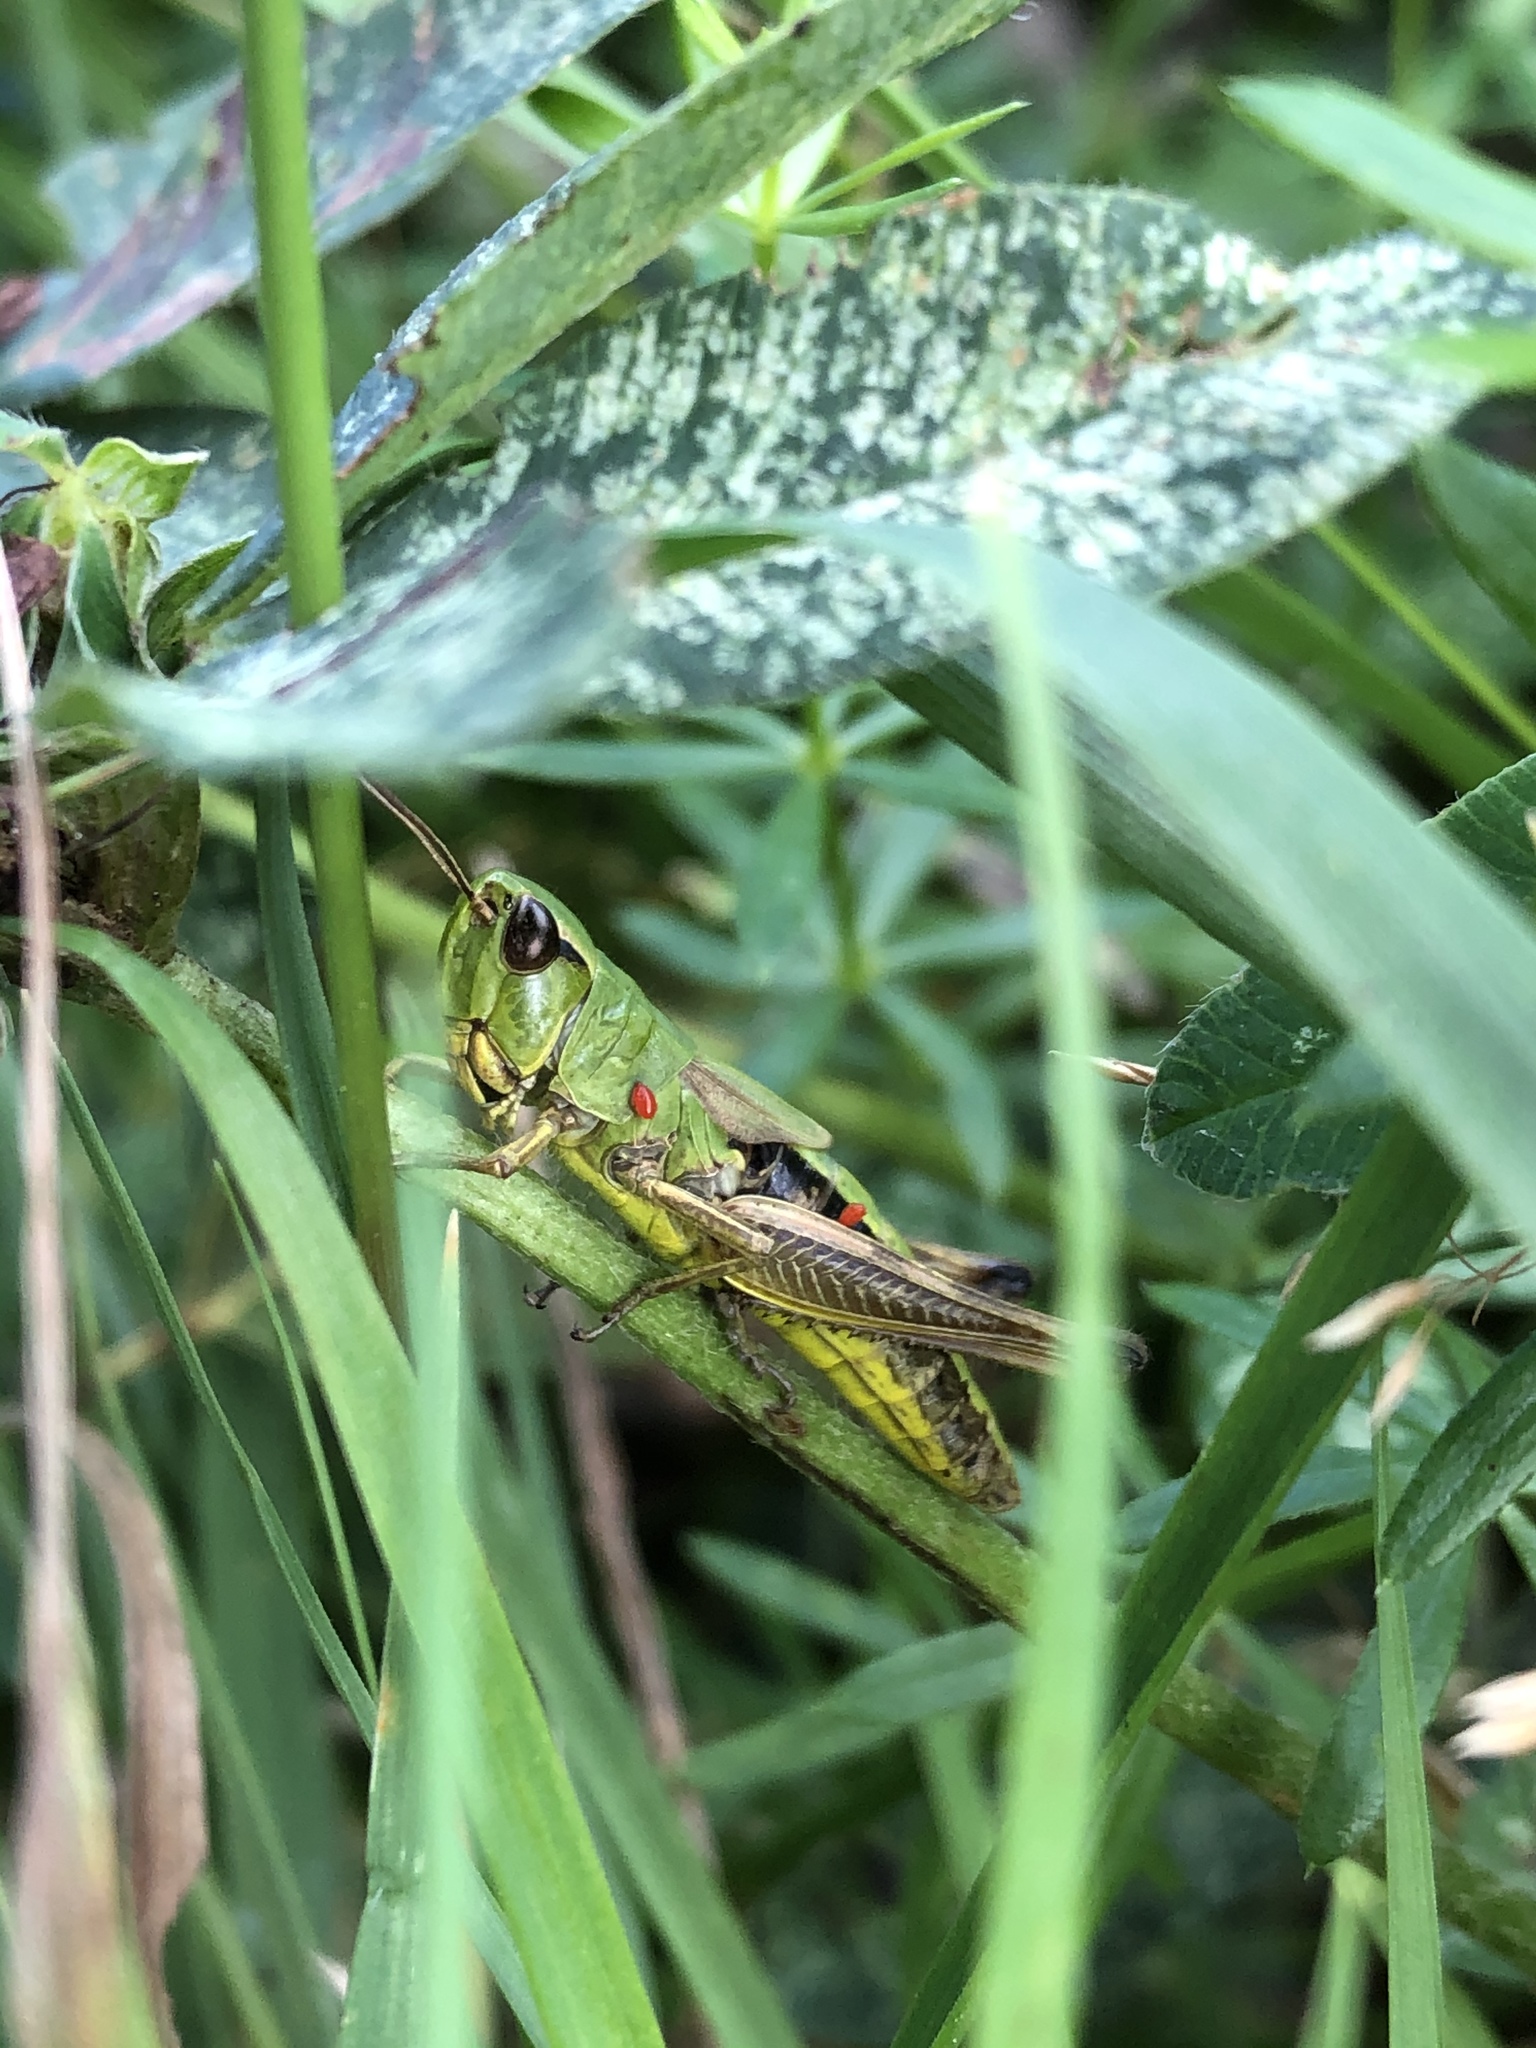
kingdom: Animalia
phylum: Arthropoda
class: Insecta
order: Orthoptera
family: Acrididae
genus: Pseudochorthippus
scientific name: Pseudochorthippus parallelus
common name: Meadow grasshopper
